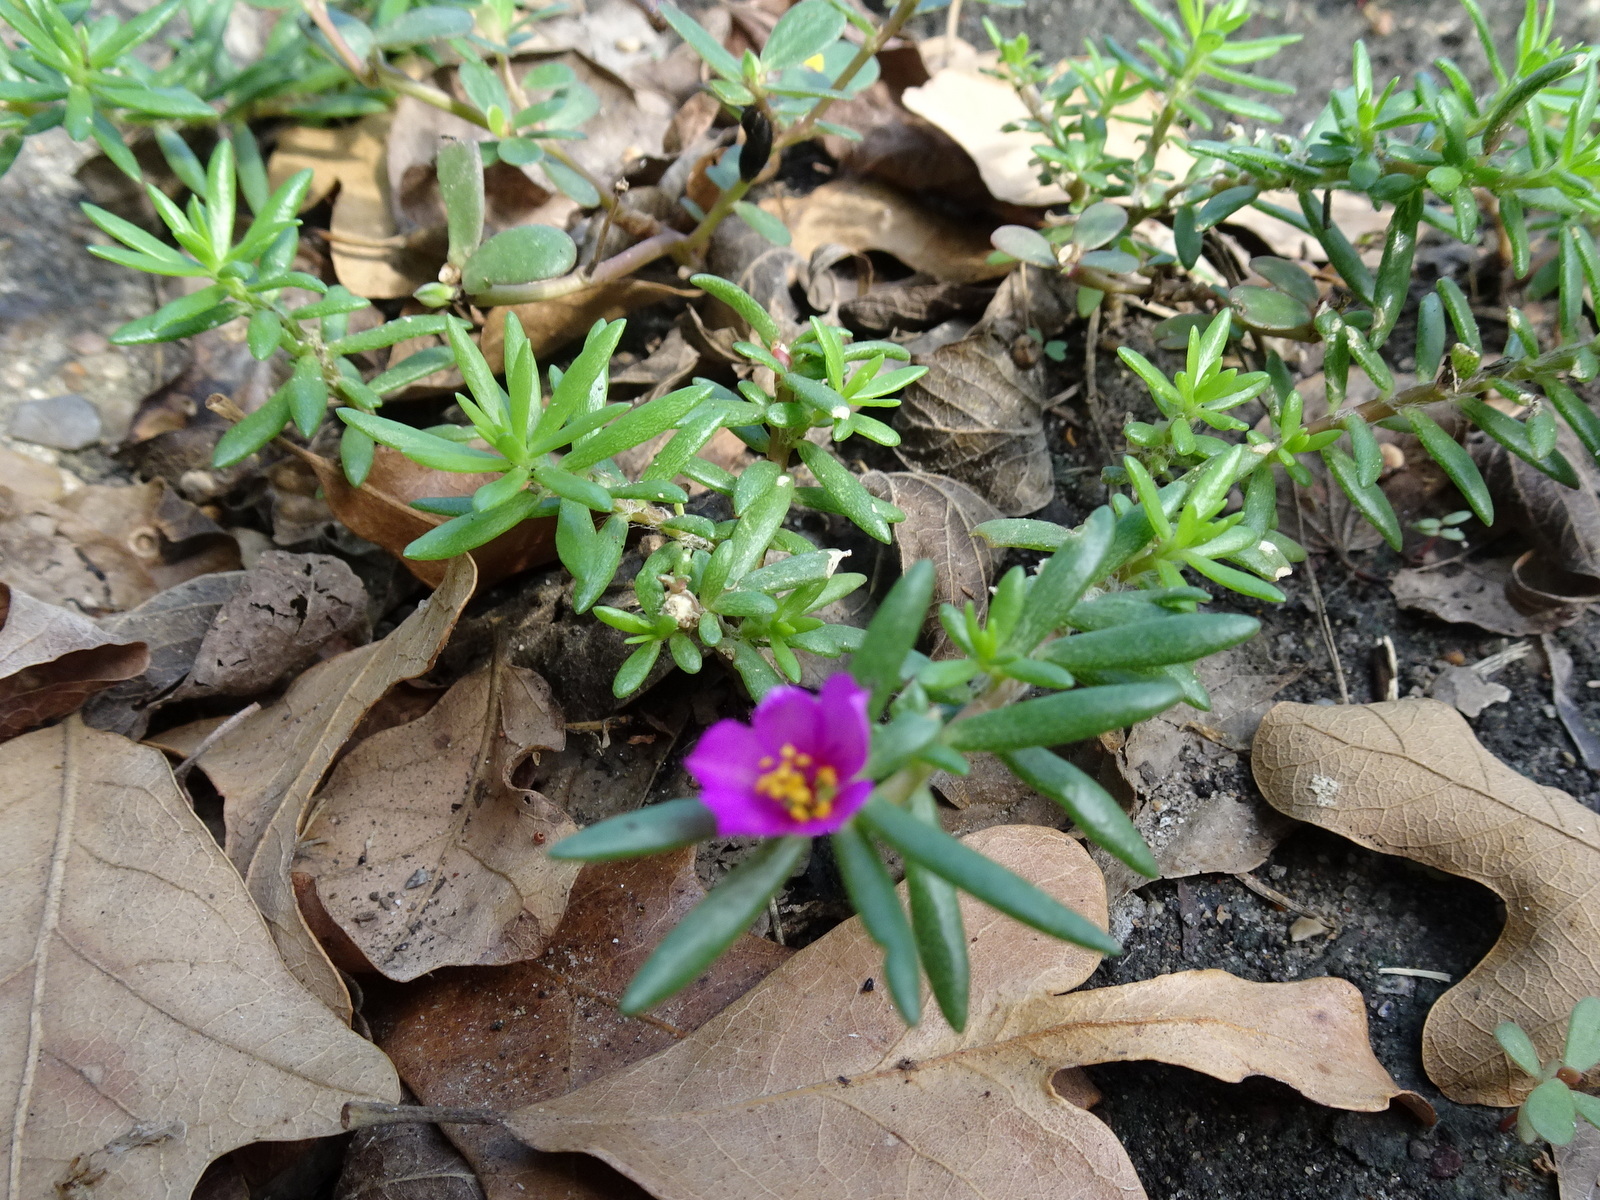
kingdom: Plantae
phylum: Tracheophyta
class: Magnoliopsida
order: Caryophyllales
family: Portulacaceae
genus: Portulaca
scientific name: Portulaca pilosa
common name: Kiss me quick
